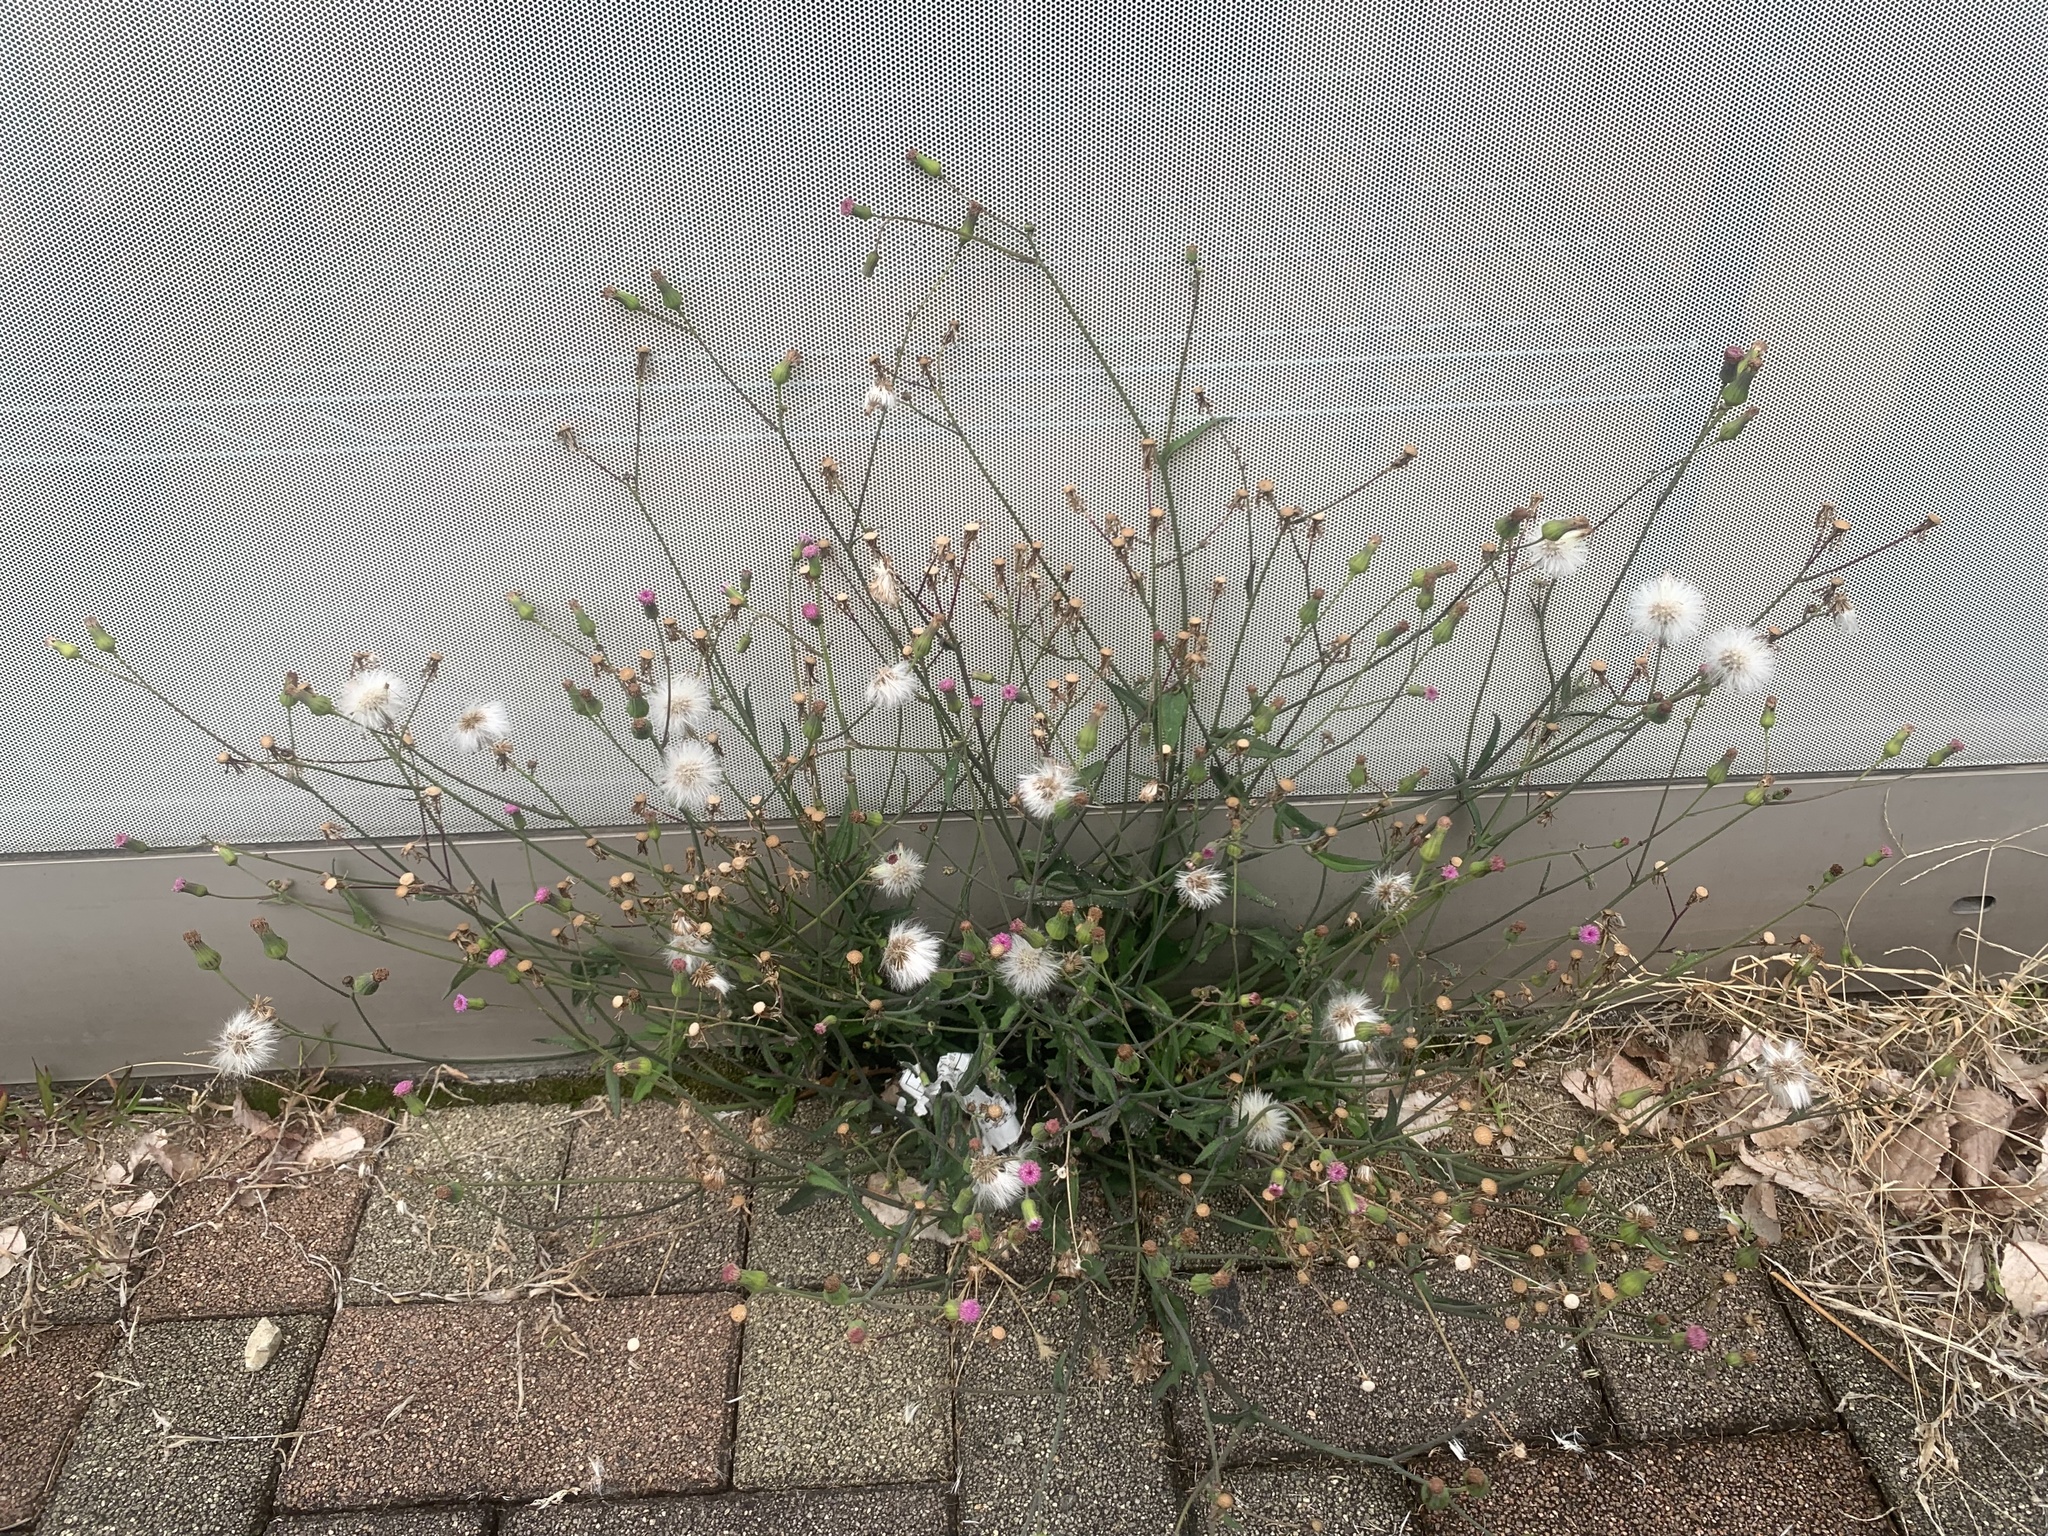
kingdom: Plantae
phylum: Tracheophyta
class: Magnoliopsida
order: Asterales
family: Asteraceae
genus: Emilia
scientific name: Emilia sonchifolia
